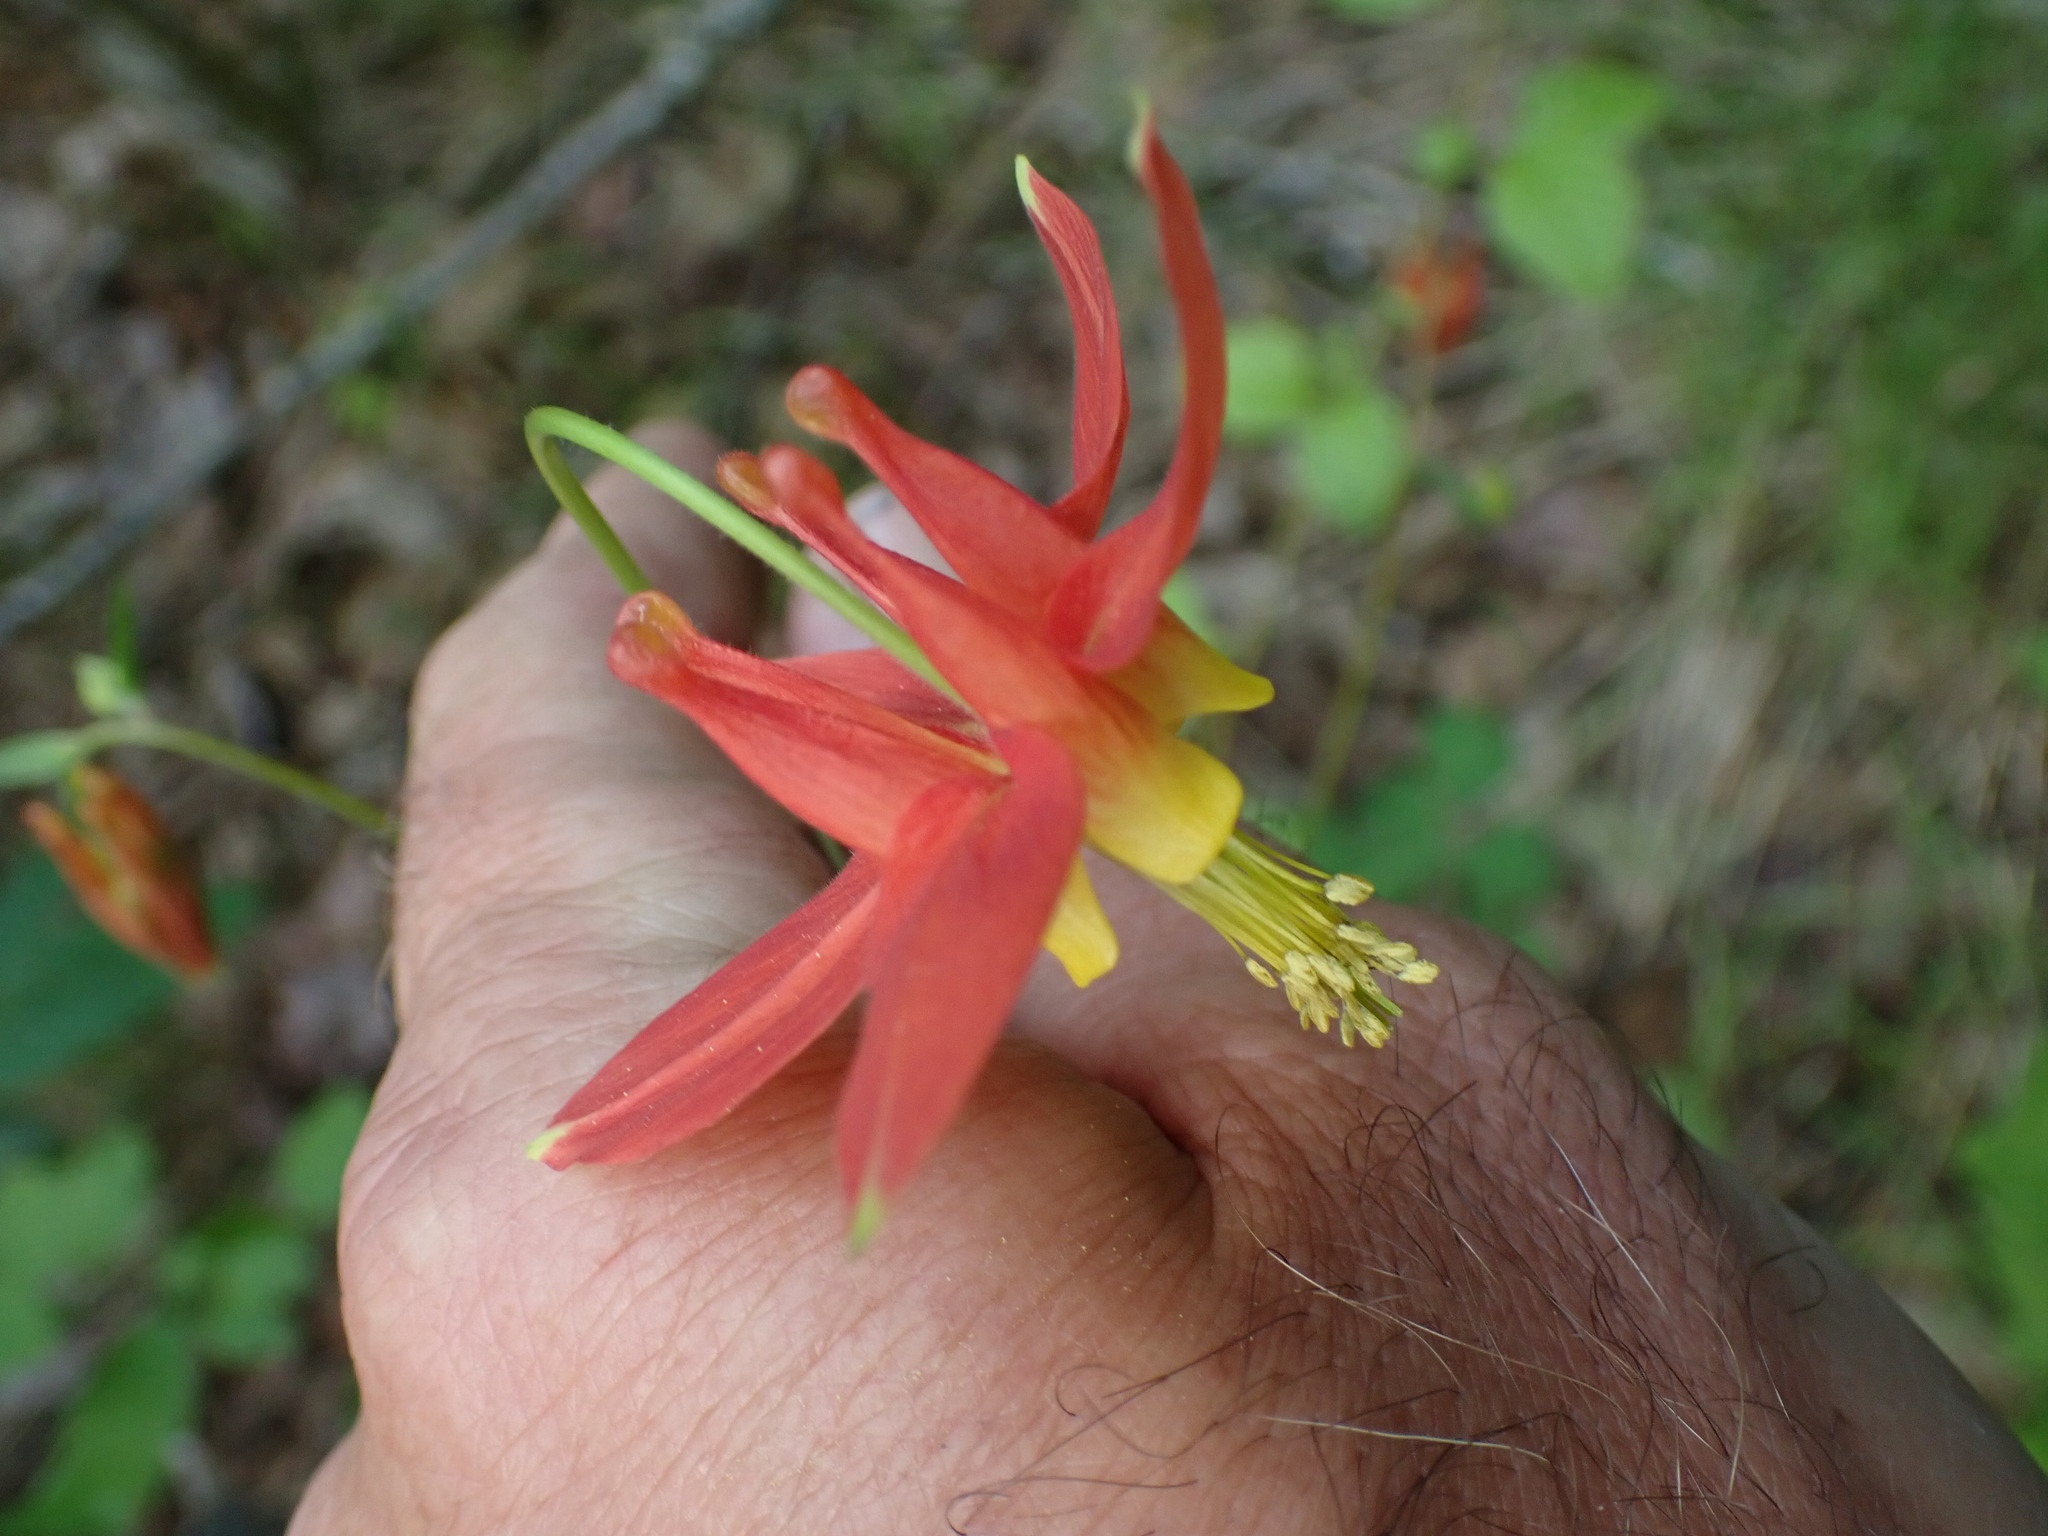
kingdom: Plantae
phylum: Tracheophyta
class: Magnoliopsida
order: Ranunculales
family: Ranunculaceae
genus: Aquilegia
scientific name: Aquilegia formosa
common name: Sitka columbine
